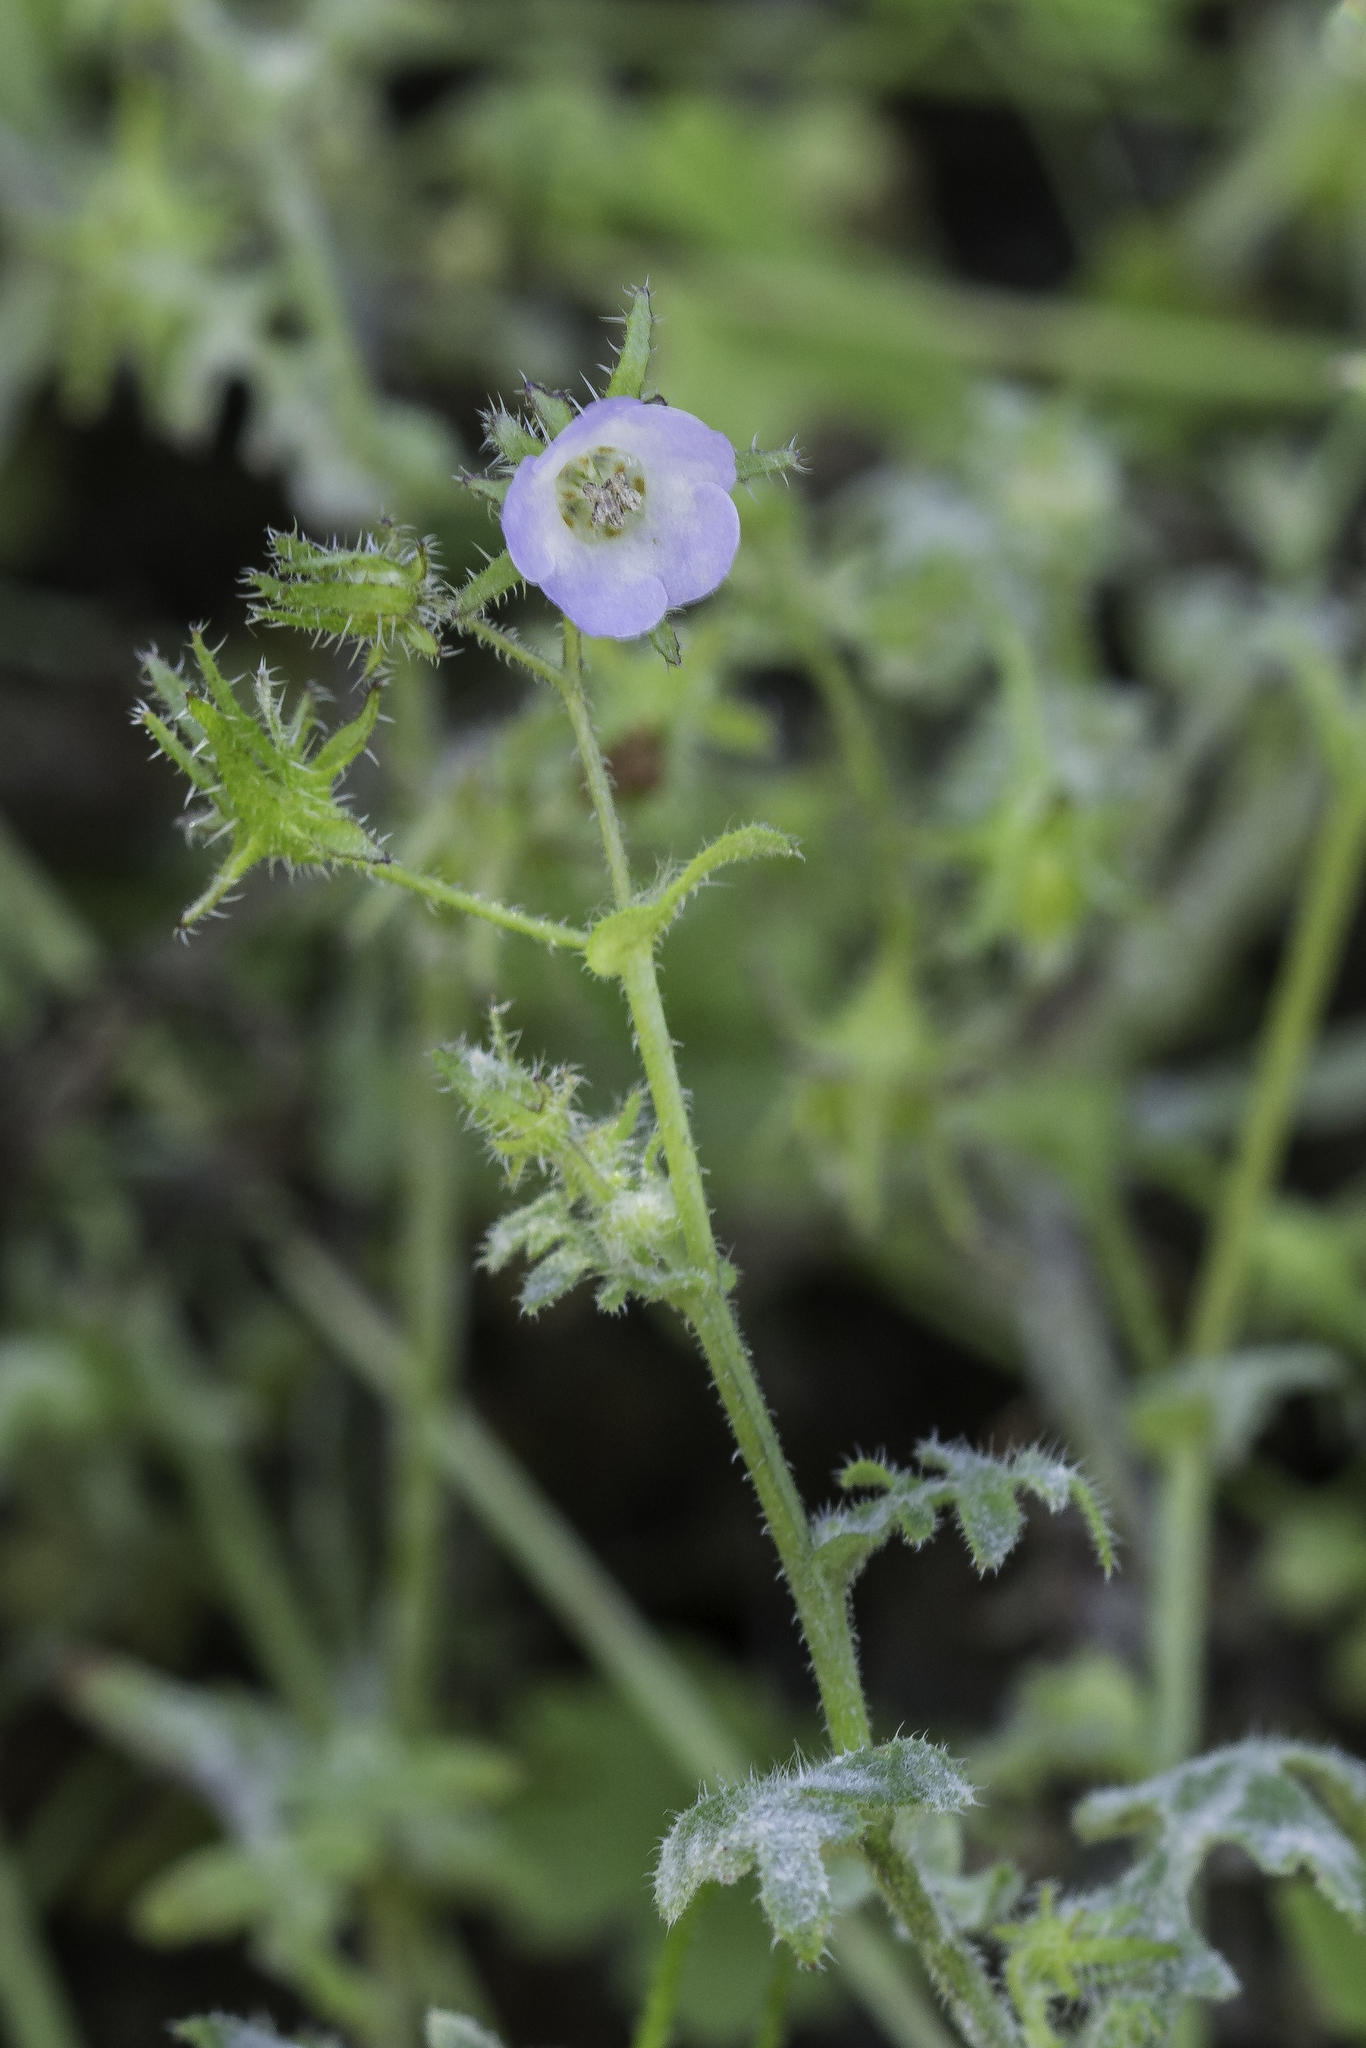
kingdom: Plantae
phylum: Tracheophyta
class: Magnoliopsida
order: Boraginales
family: Hydrophyllaceae
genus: Pholistoma
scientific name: Pholistoma auritum
